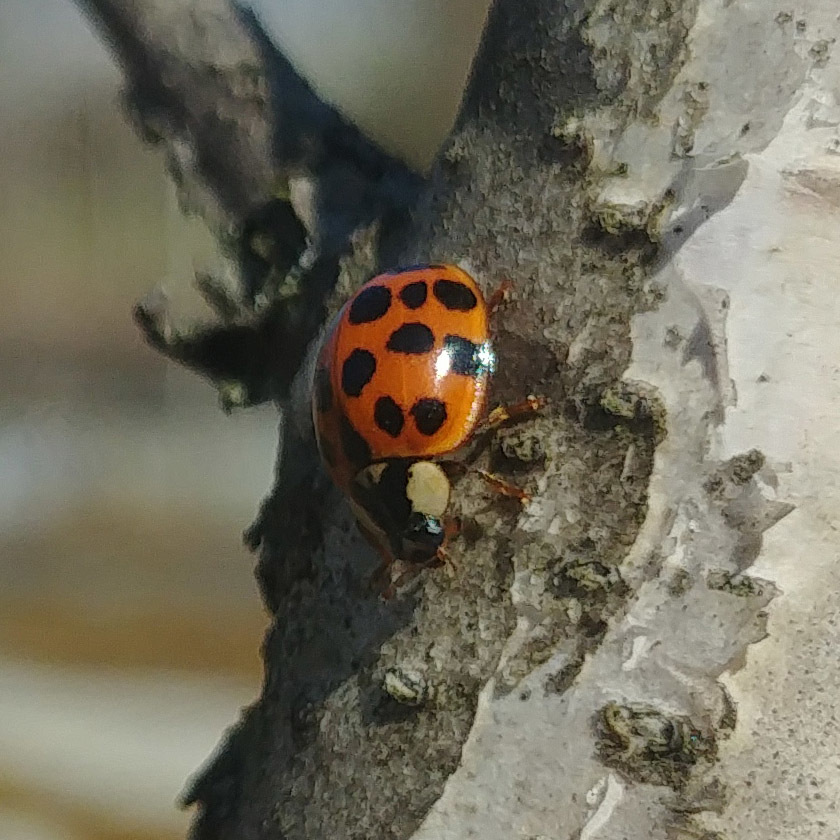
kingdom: Animalia
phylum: Arthropoda
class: Insecta
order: Coleoptera
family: Coccinellidae
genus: Harmonia
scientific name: Harmonia axyridis
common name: Harlequin ladybird
